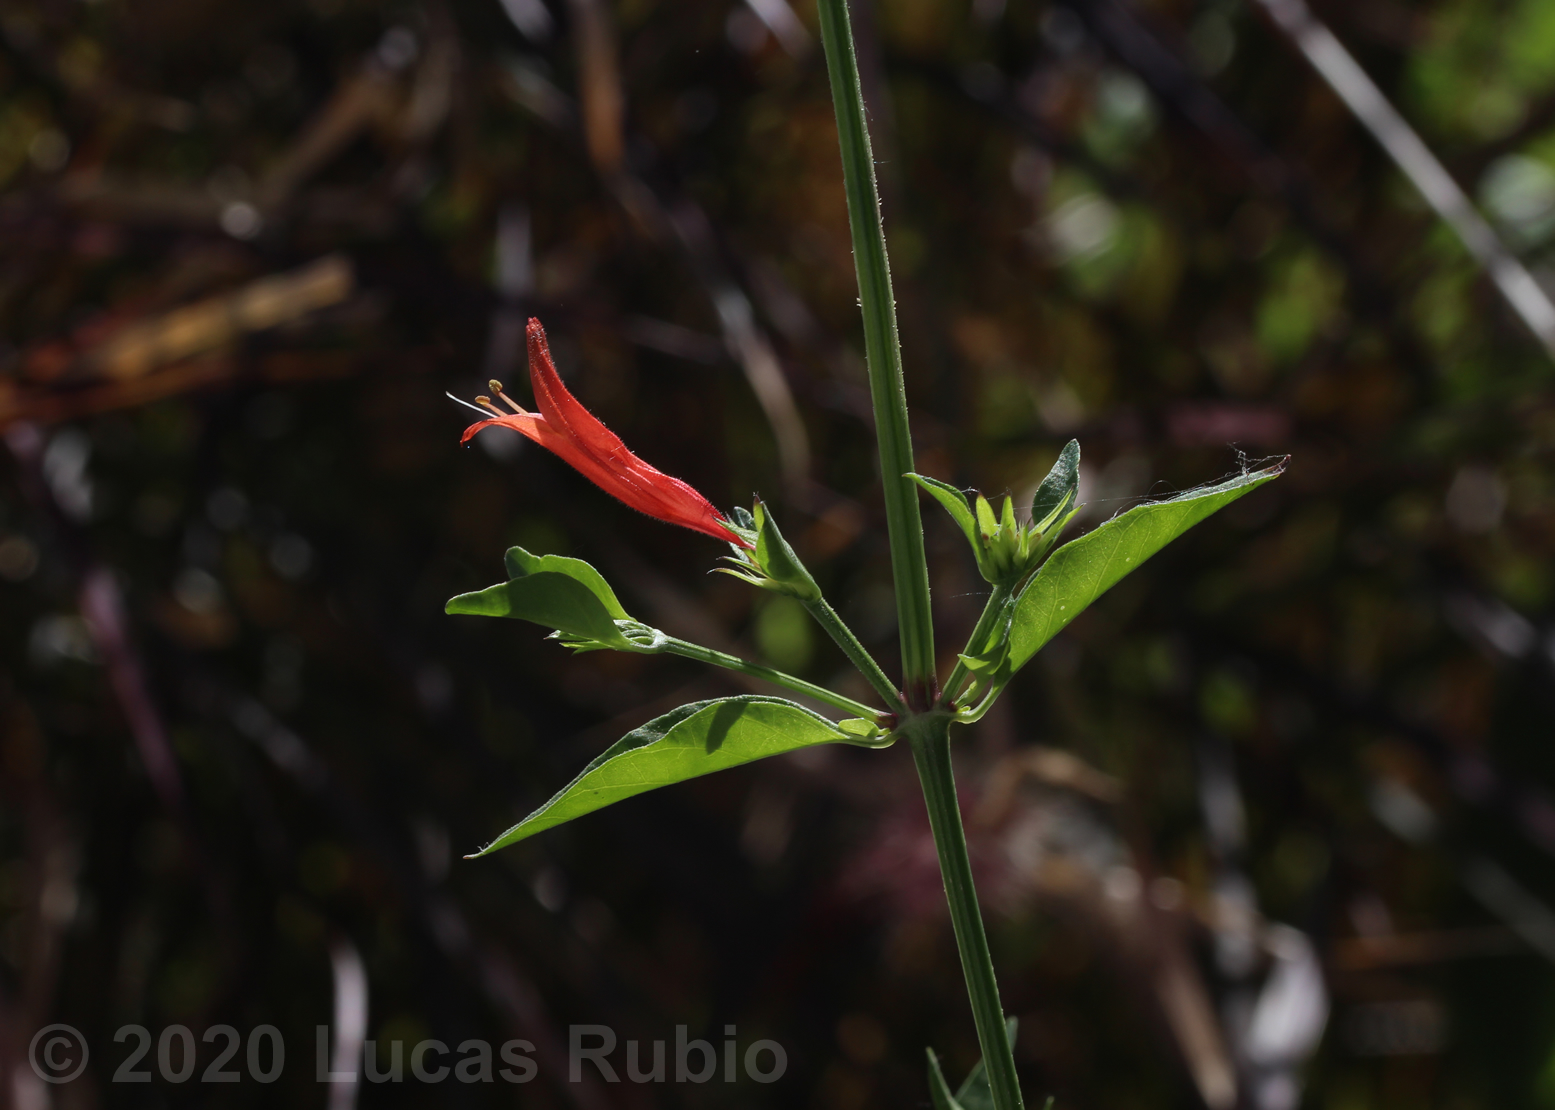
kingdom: Plantae
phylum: Tracheophyta
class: Magnoliopsida
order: Lamiales
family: Acanthaceae
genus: Dicliptera
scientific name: Dicliptera squarrosa
